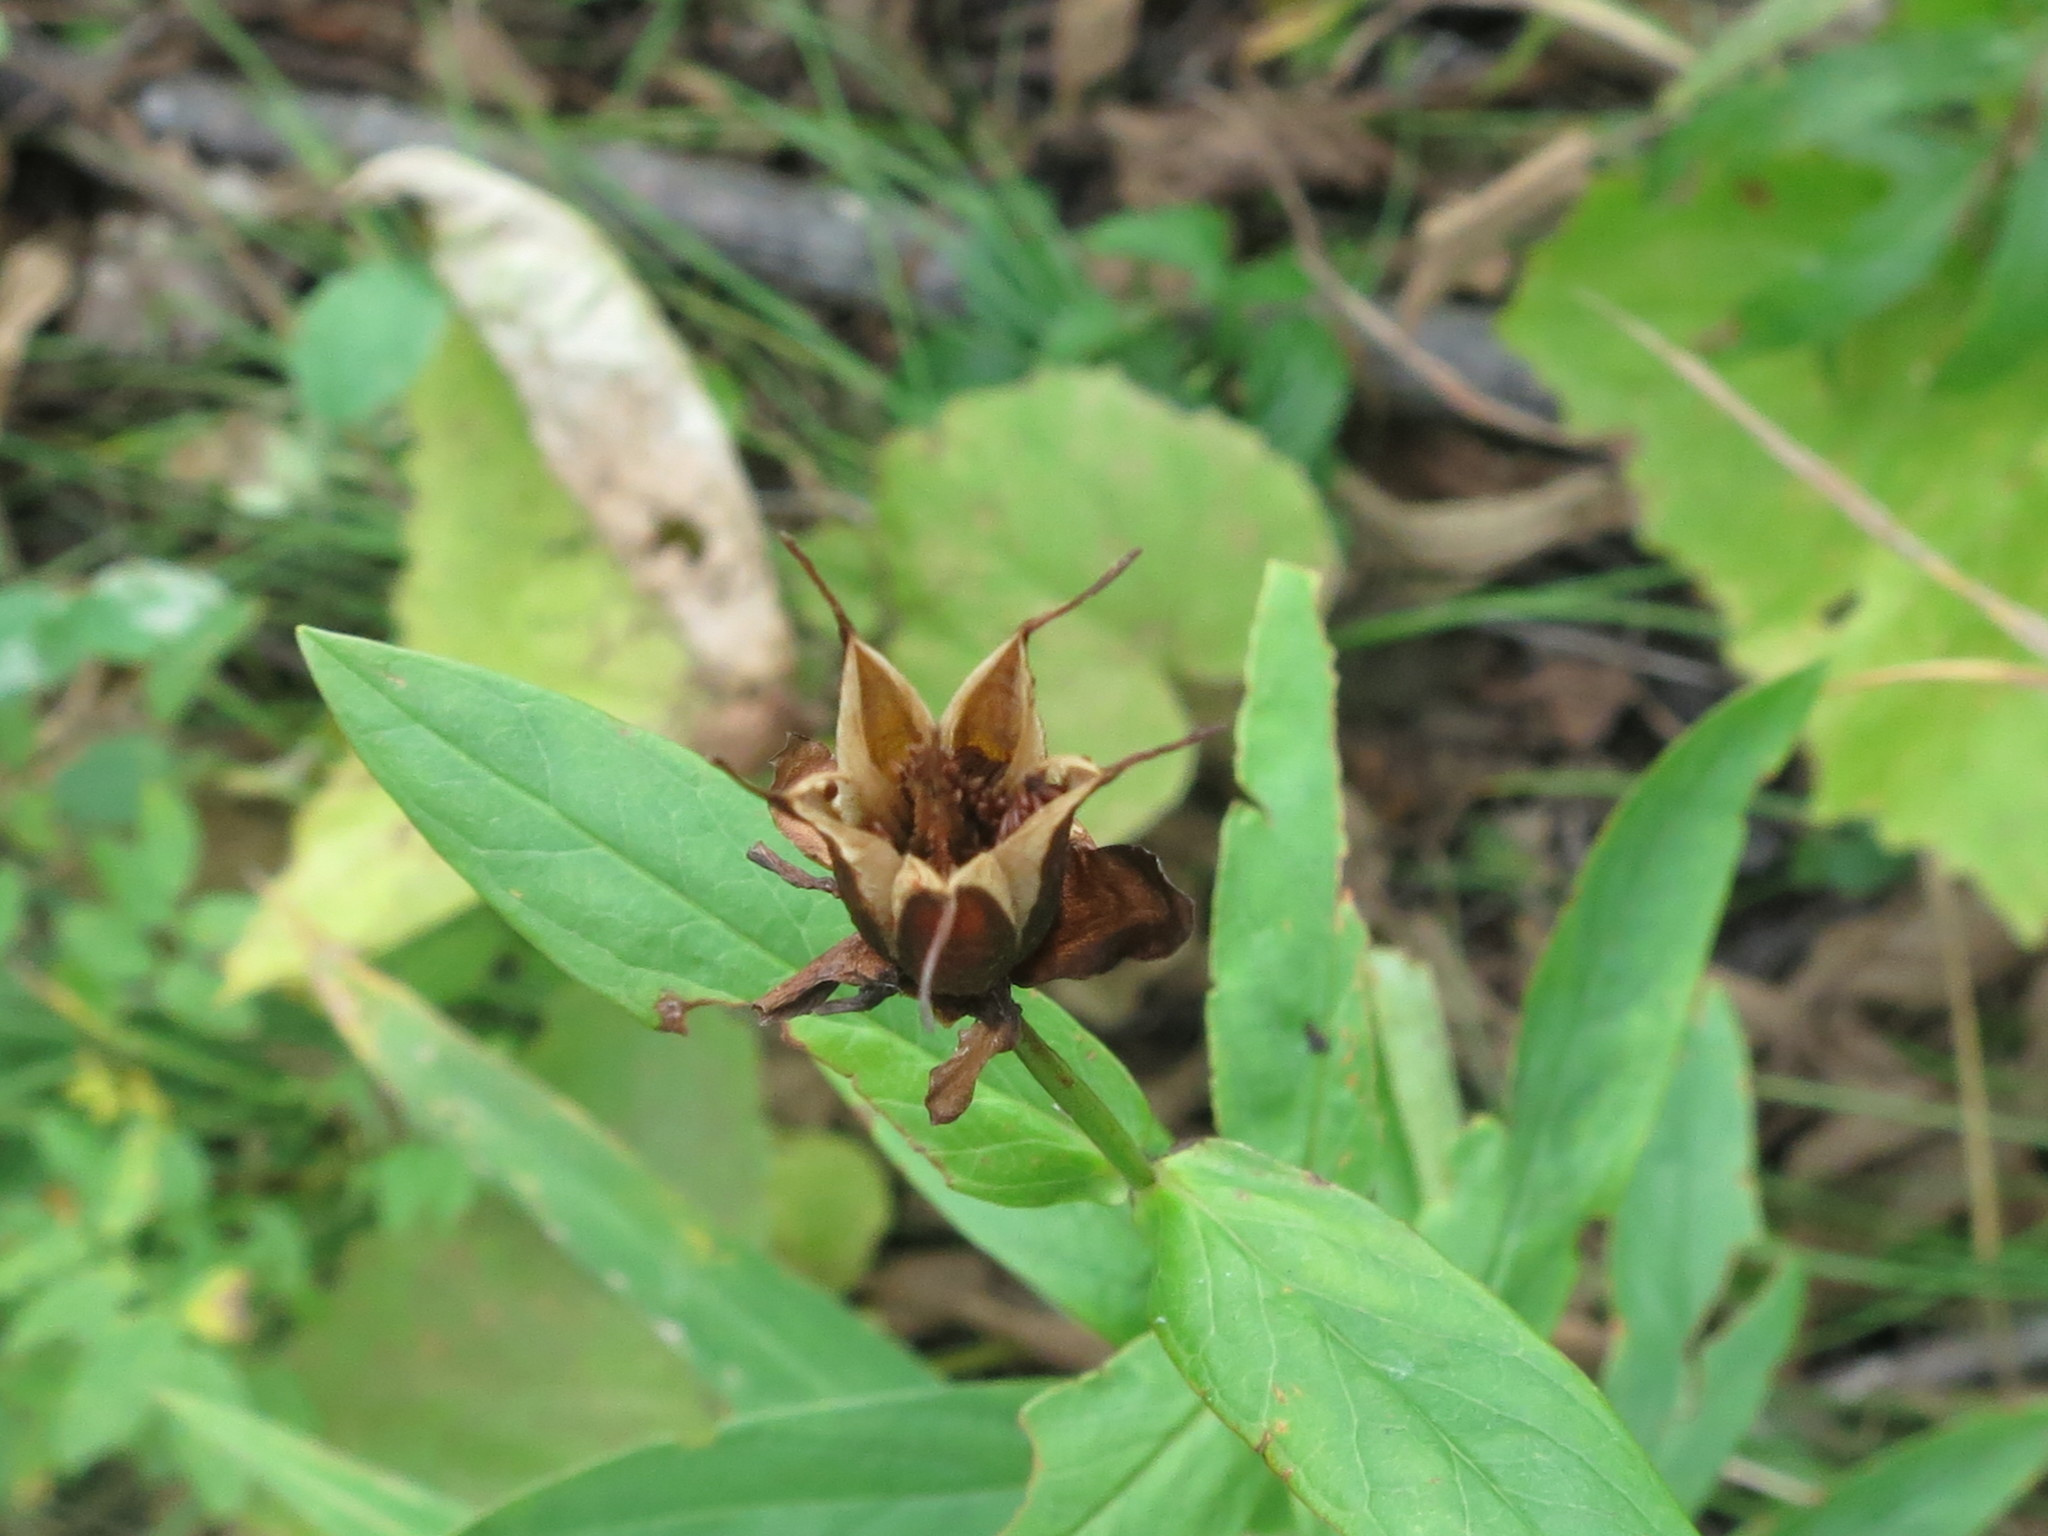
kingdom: Plantae
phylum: Tracheophyta
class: Magnoliopsida
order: Malpighiales
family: Hypericaceae
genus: Hypericum
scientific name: Hypericum ascyron
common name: Giant st. john's-wort
